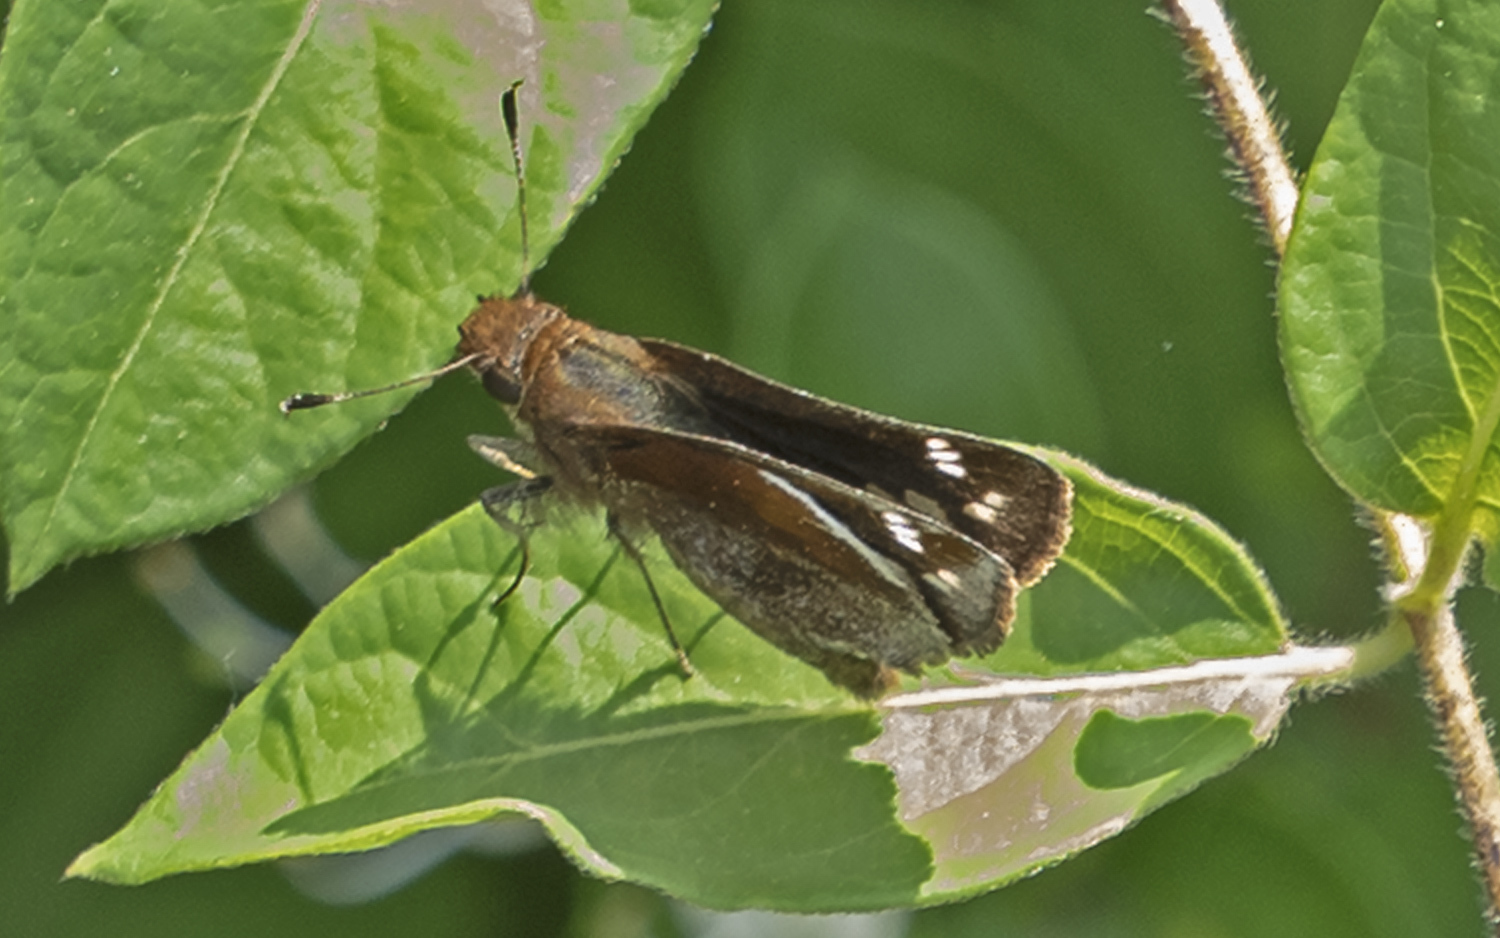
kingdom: Animalia
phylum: Arthropoda
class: Insecta
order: Lepidoptera
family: Hesperiidae
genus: Lon
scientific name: Lon zabulon
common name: Zabulon skipper
